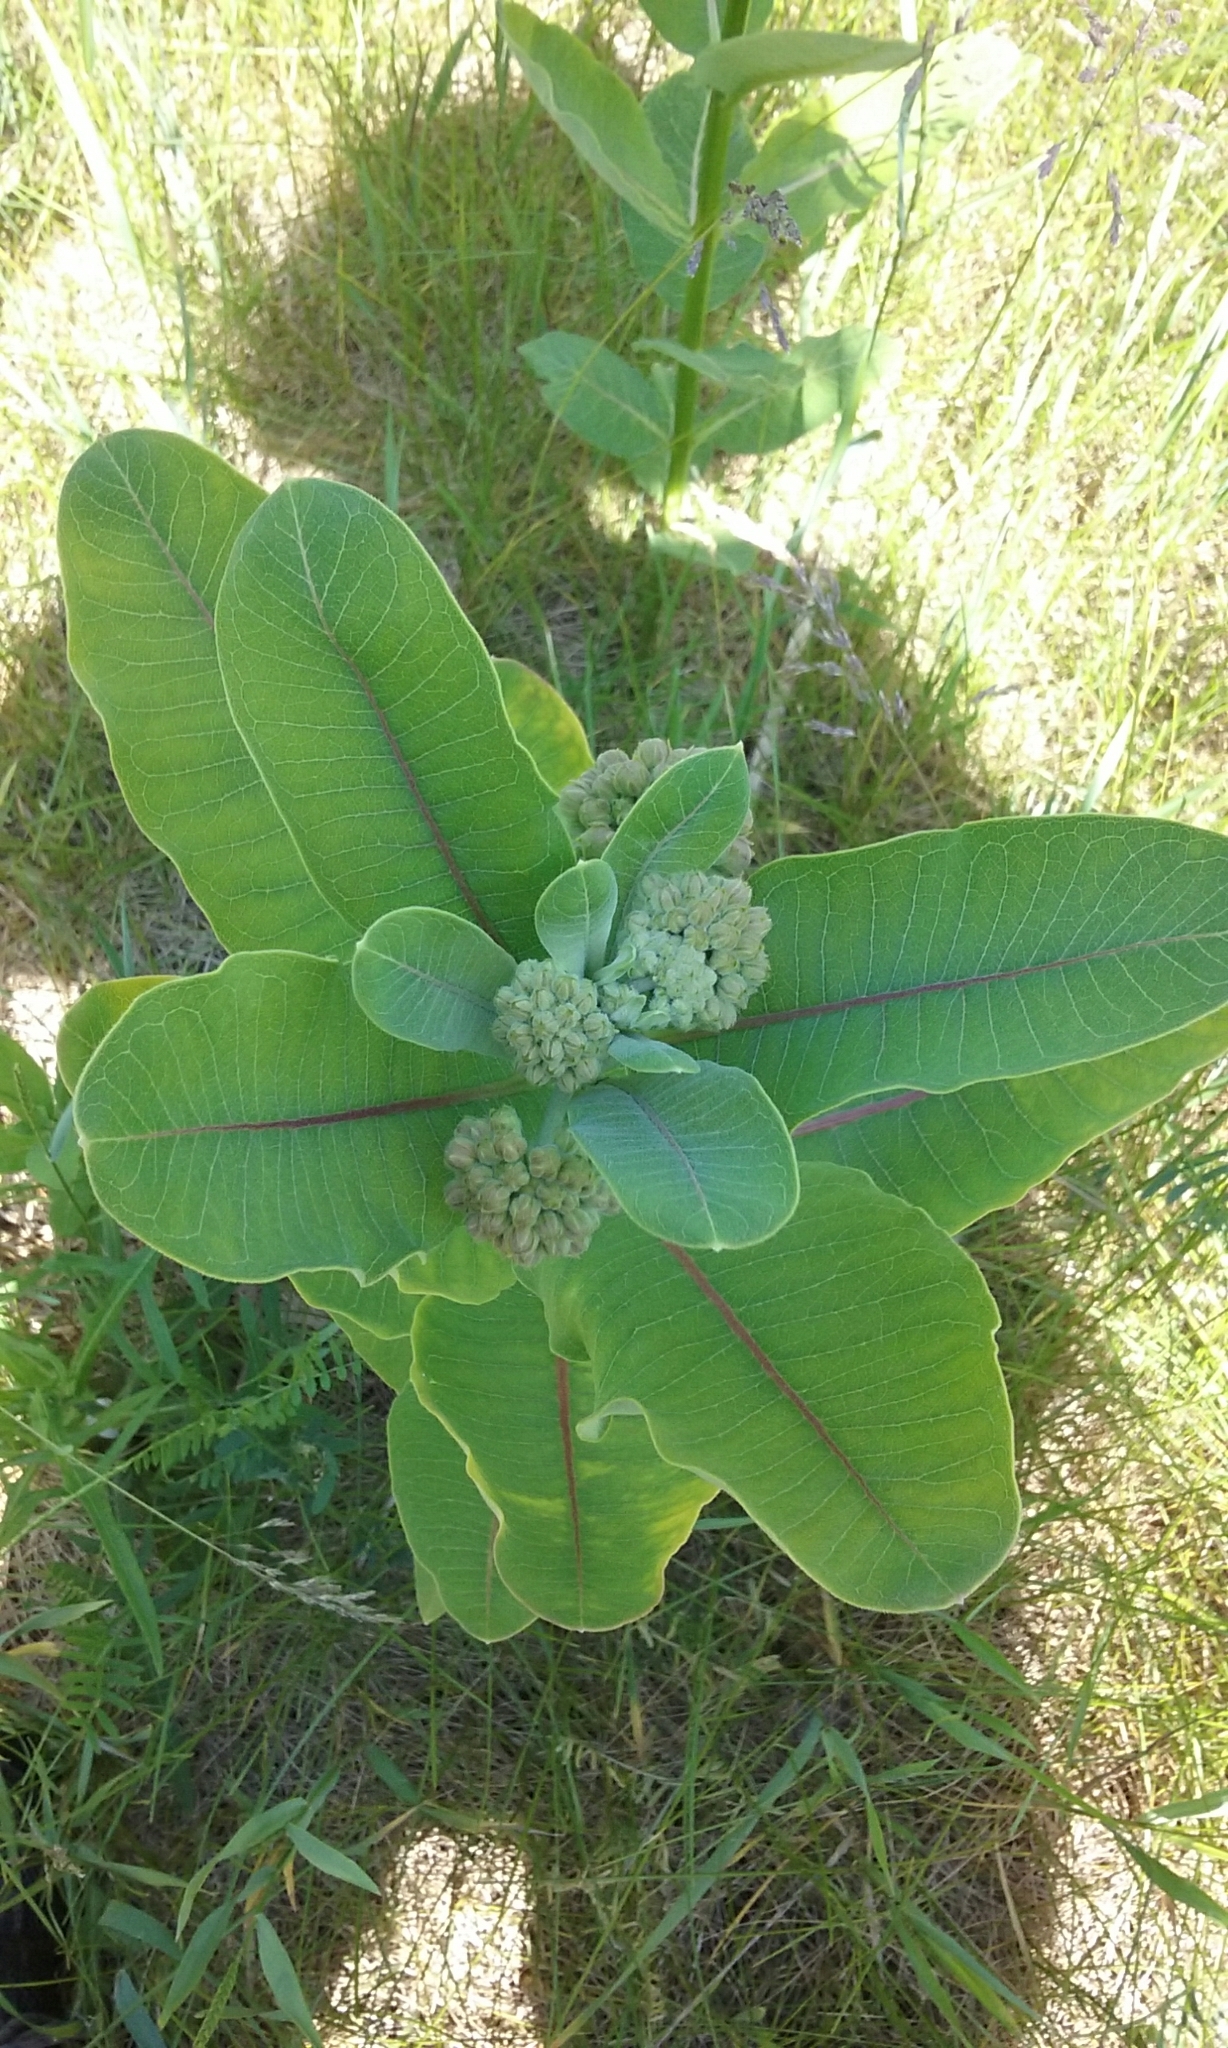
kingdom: Plantae
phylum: Tracheophyta
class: Magnoliopsida
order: Gentianales
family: Apocynaceae
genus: Asclepias
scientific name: Asclepias syriaca
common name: Common milkweed
